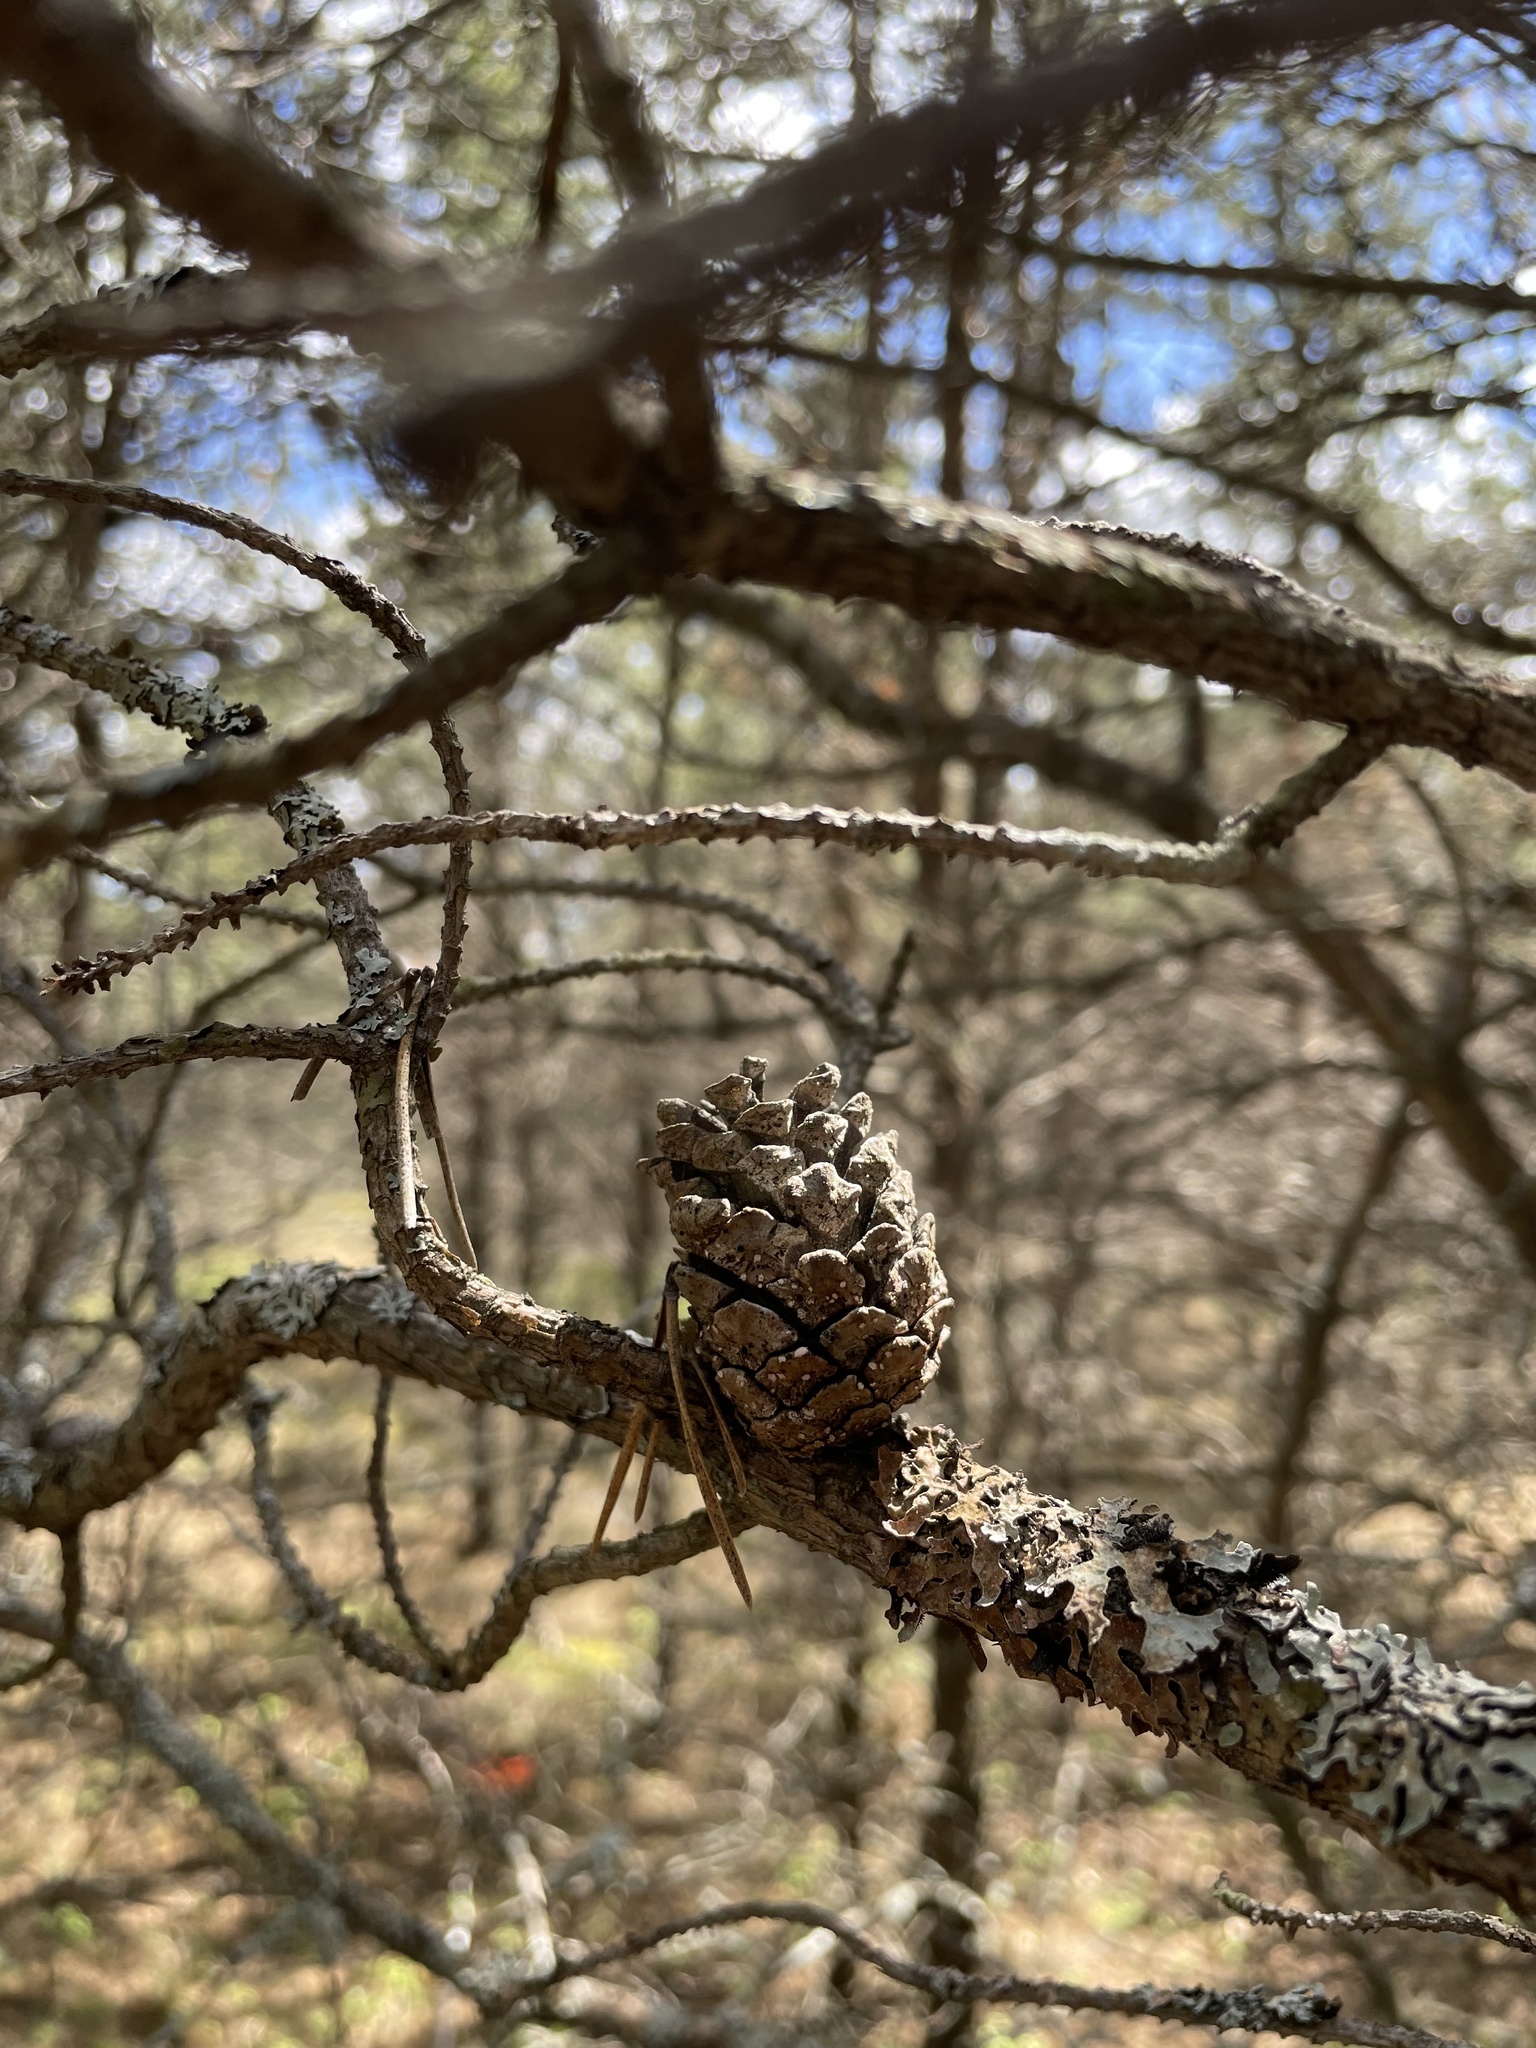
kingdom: Plantae
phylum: Tracheophyta
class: Pinopsida
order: Pinales
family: Pinaceae
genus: Pinus
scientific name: Pinus banksiana
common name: Jack pine
